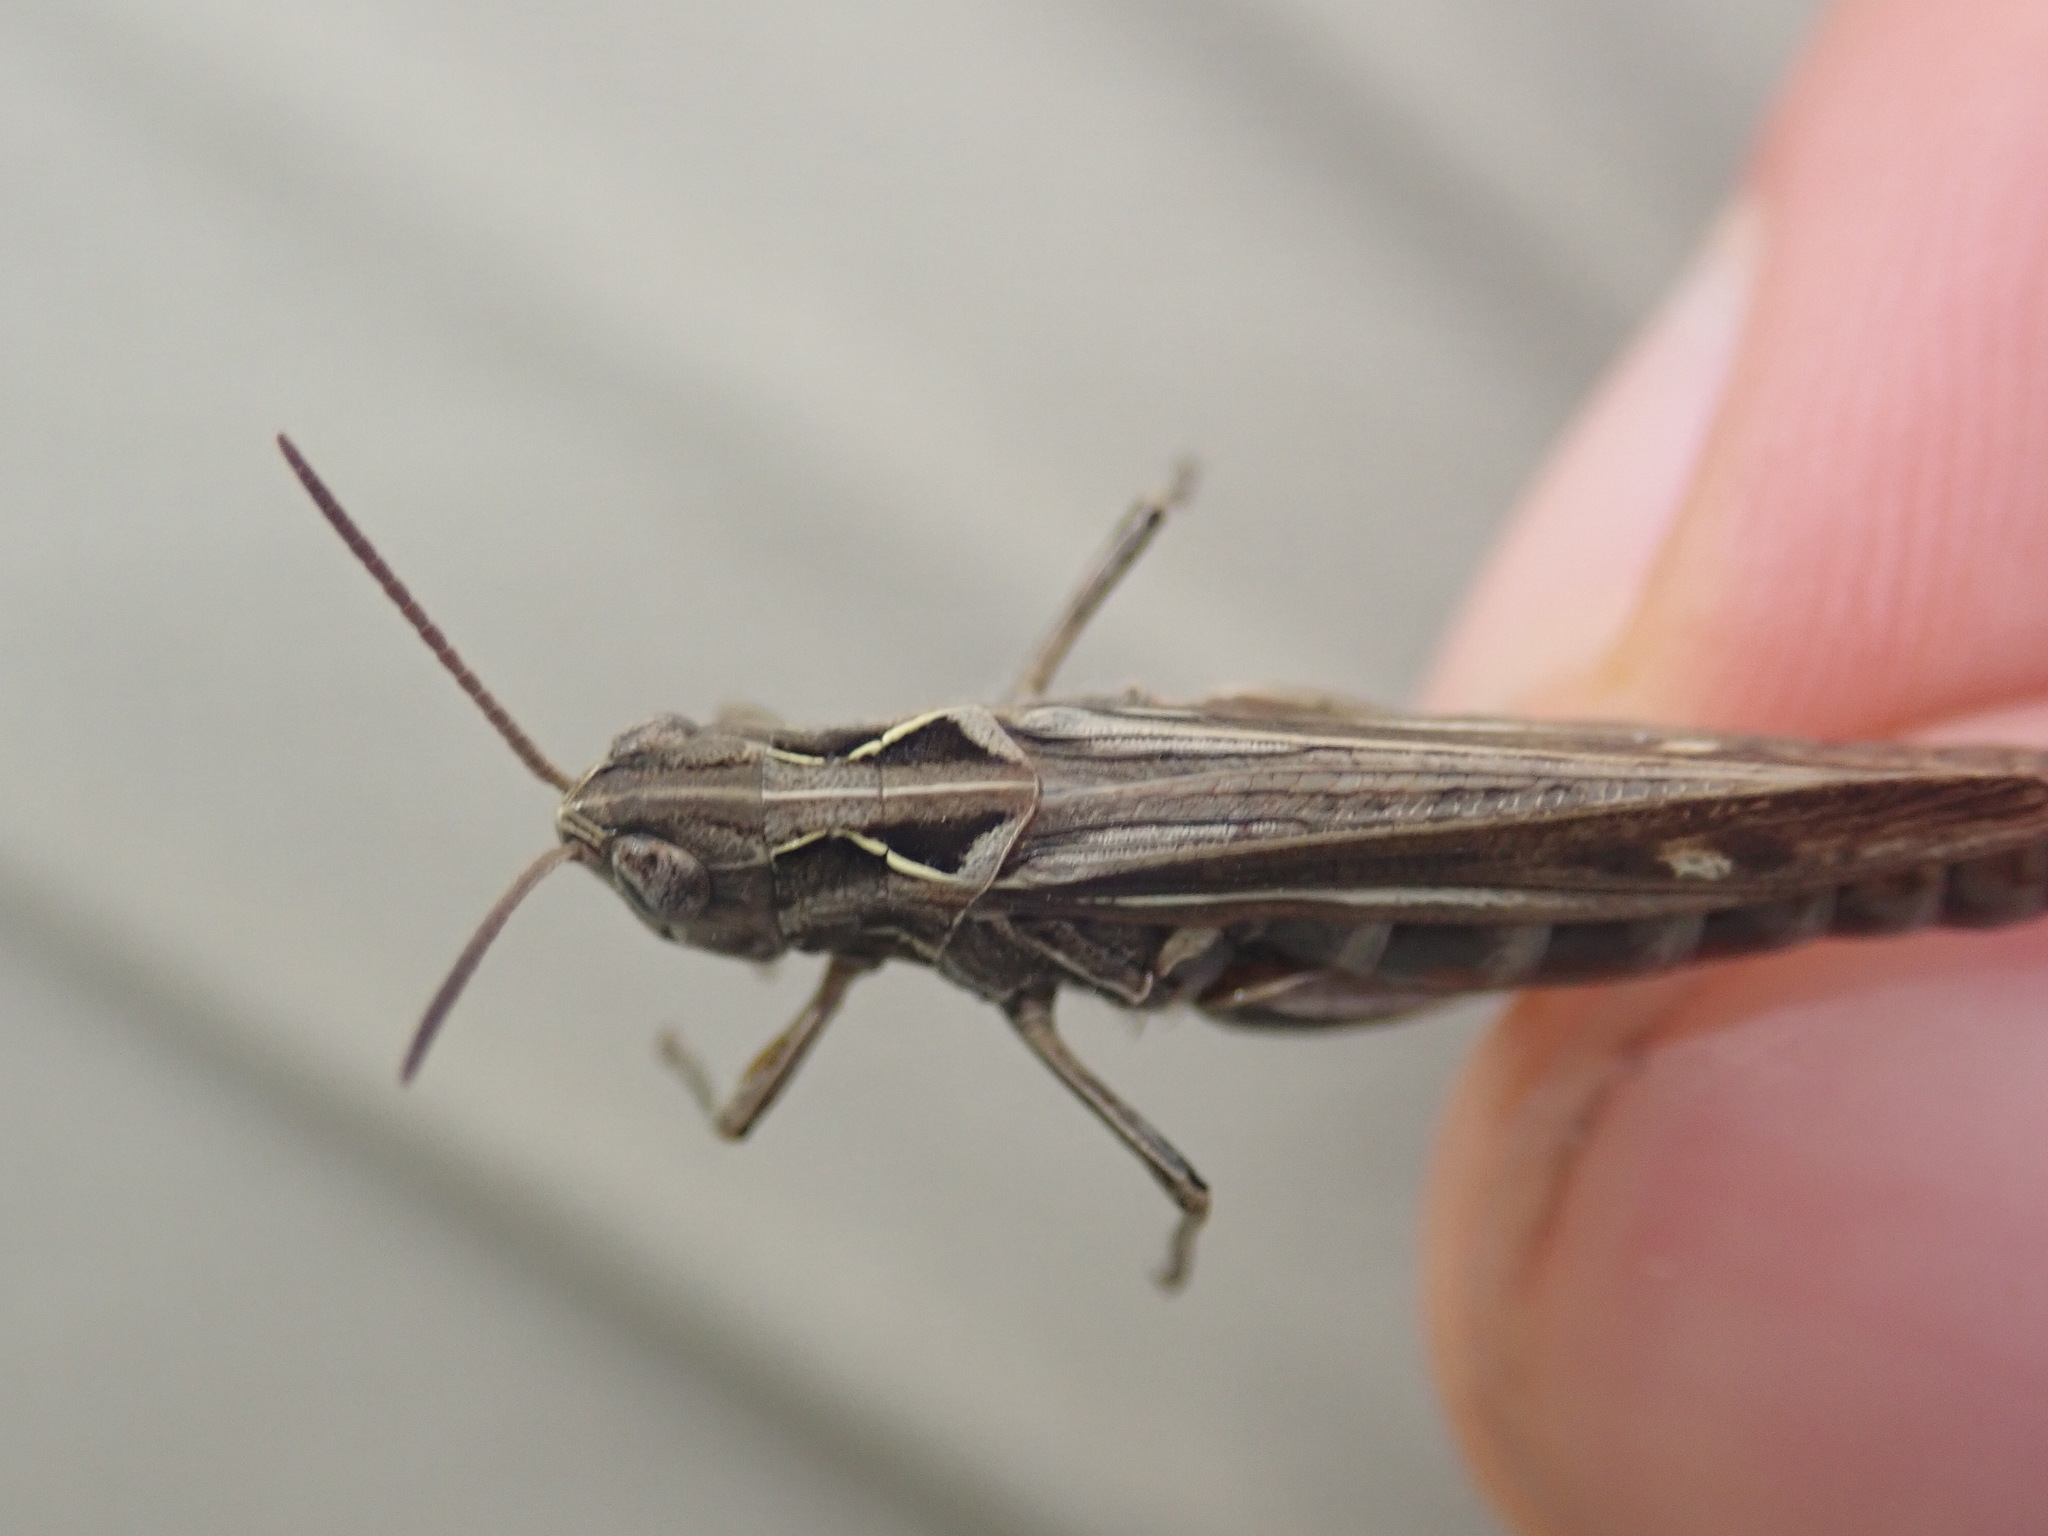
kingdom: Animalia
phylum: Arthropoda
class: Insecta
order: Orthoptera
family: Acrididae
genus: Glyptobothrus
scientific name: Glyptobothrus
